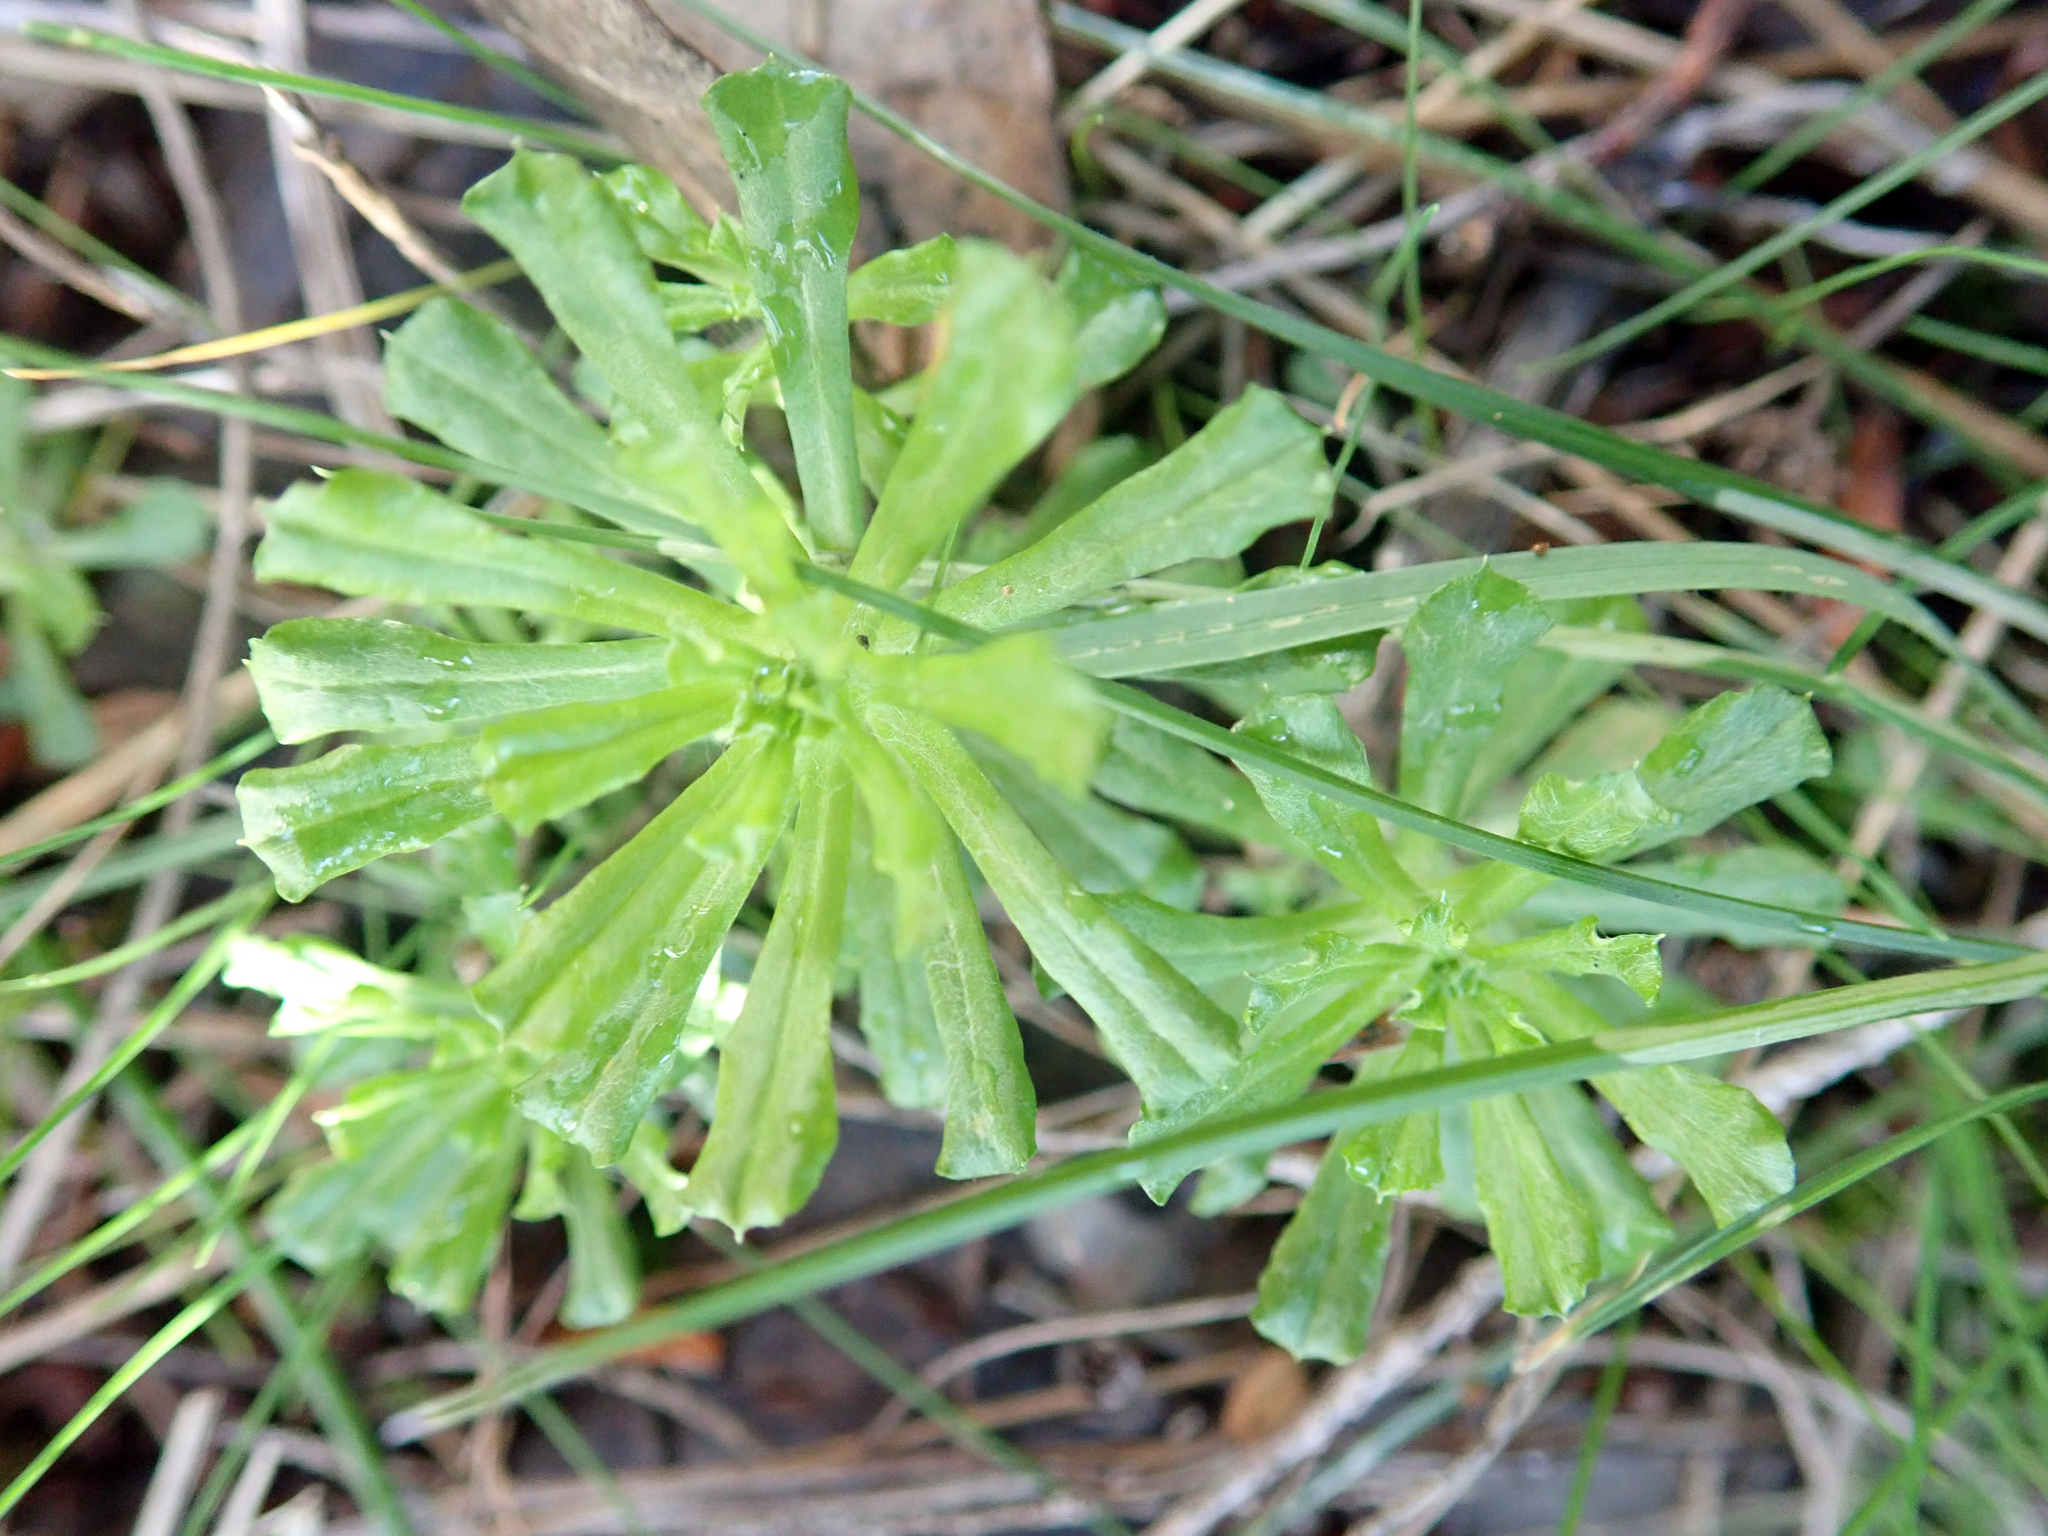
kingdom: Plantae
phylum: Tracheophyta
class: Magnoliopsida
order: Asterales
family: Asteraceae
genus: Facelis
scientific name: Facelis retusa
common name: Annual trampweed
